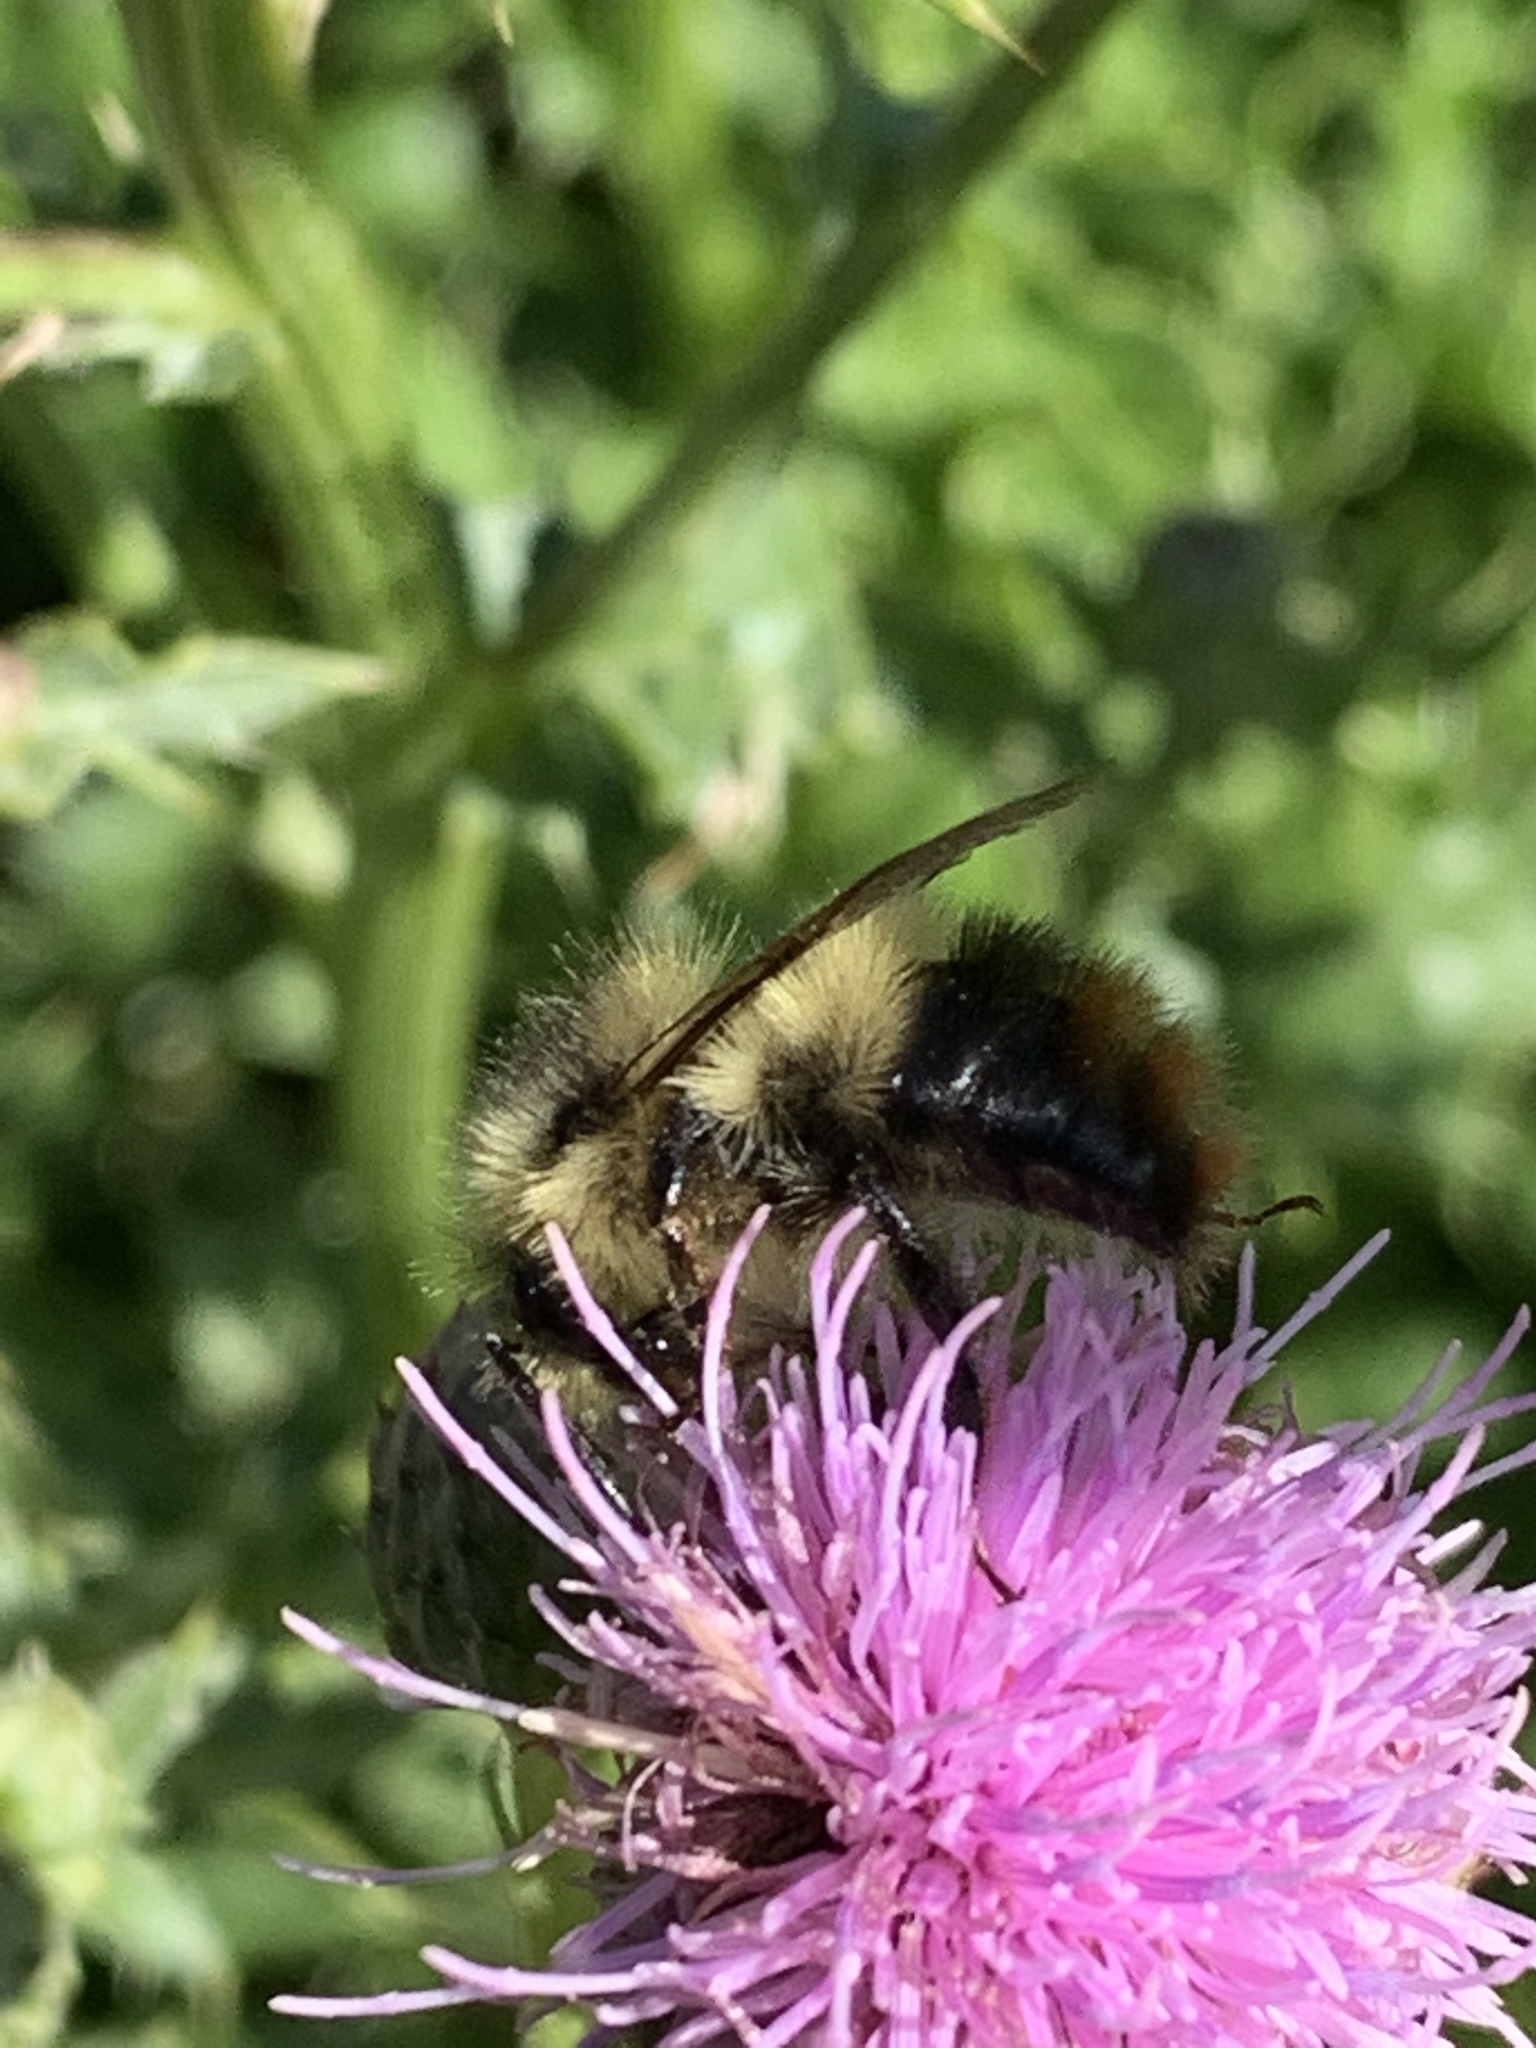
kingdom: Animalia
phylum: Arthropoda
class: Insecta
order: Hymenoptera
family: Apidae
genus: Bombus
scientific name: Bombus mixtus
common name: Fuzzy-horned bumble bee
